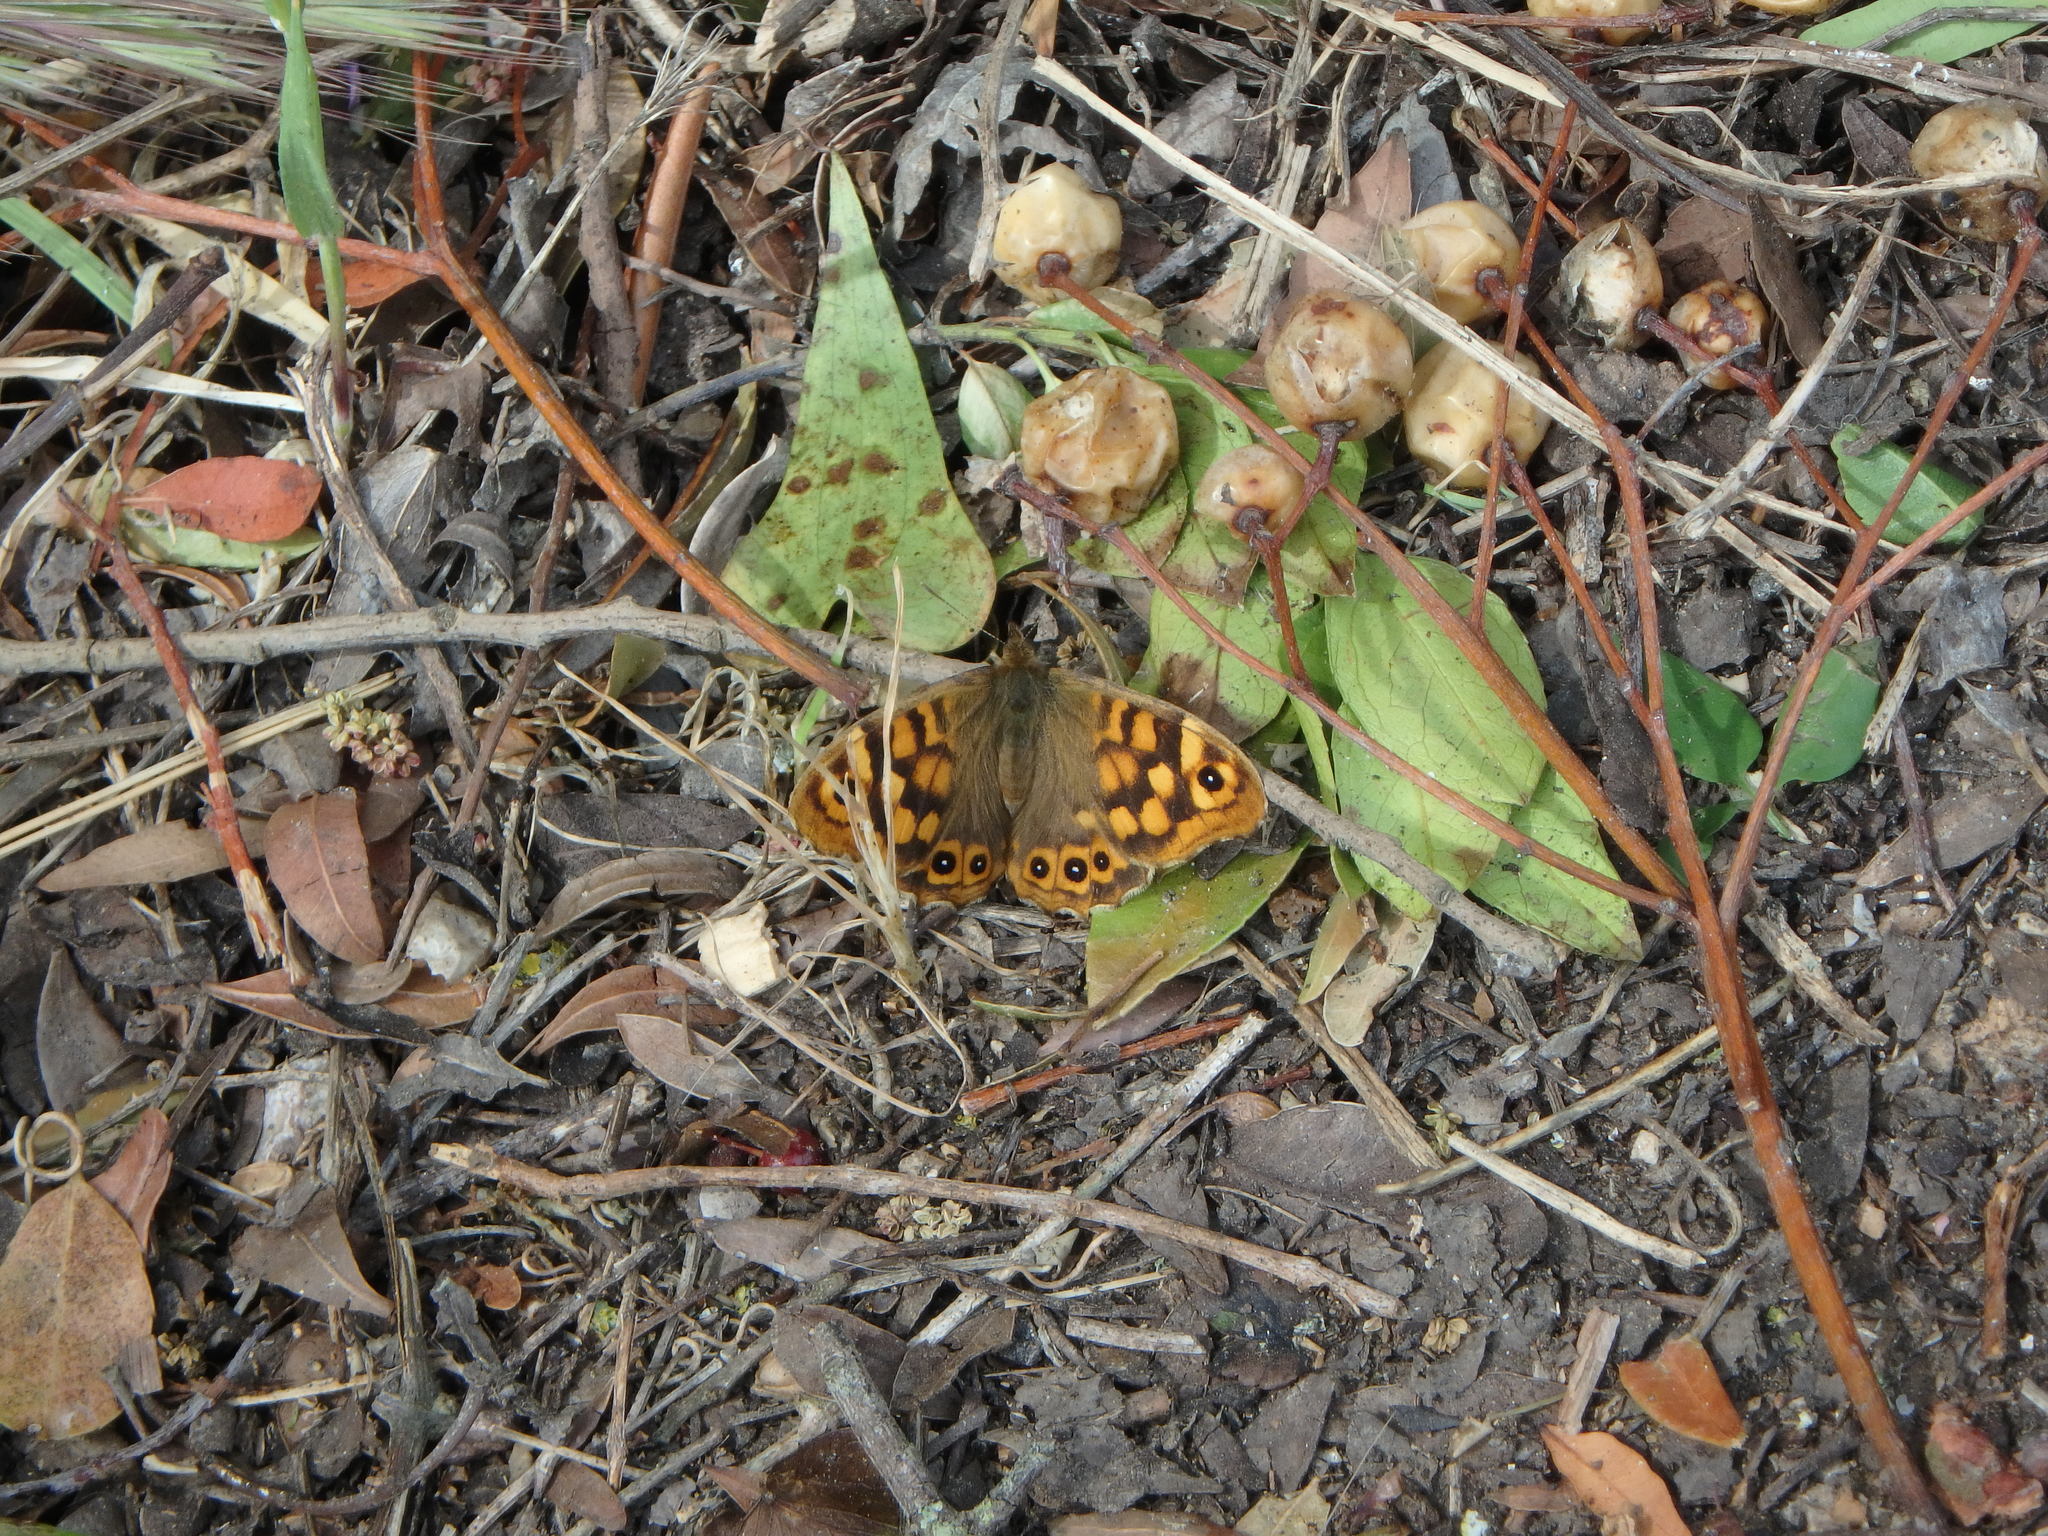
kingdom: Animalia
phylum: Arthropoda
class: Insecta
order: Lepidoptera
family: Nymphalidae
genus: Pararge
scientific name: Pararge aegeria
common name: Speckled wood
